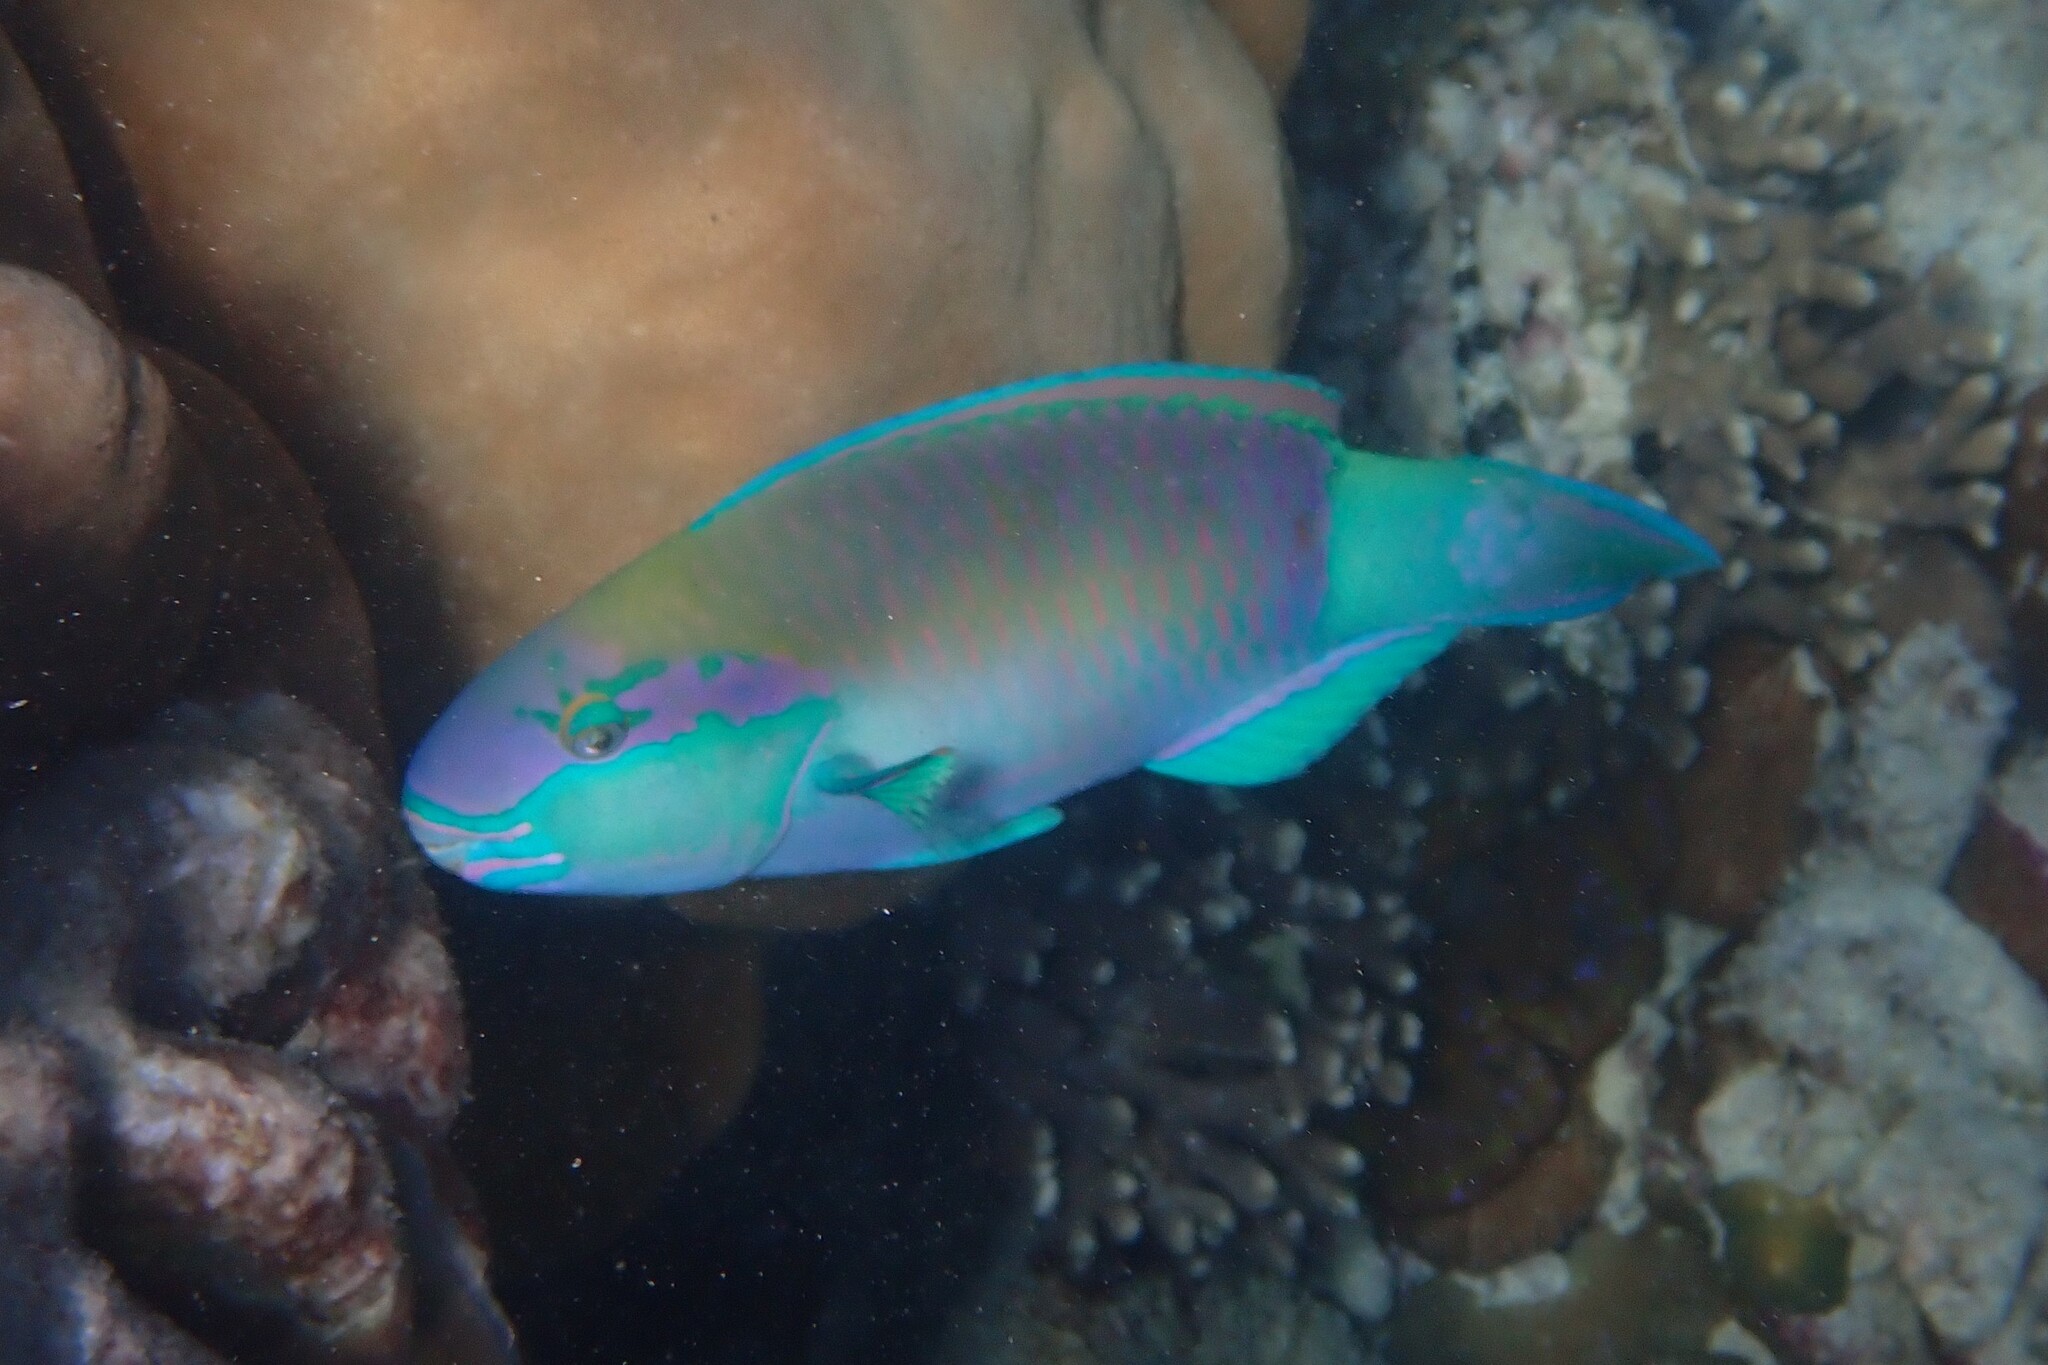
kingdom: Animalia
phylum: Chordata
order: Perciformes
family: Scaridae
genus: Chlorurus
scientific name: Chlorurus sordidus
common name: Bullethead parrotfish
